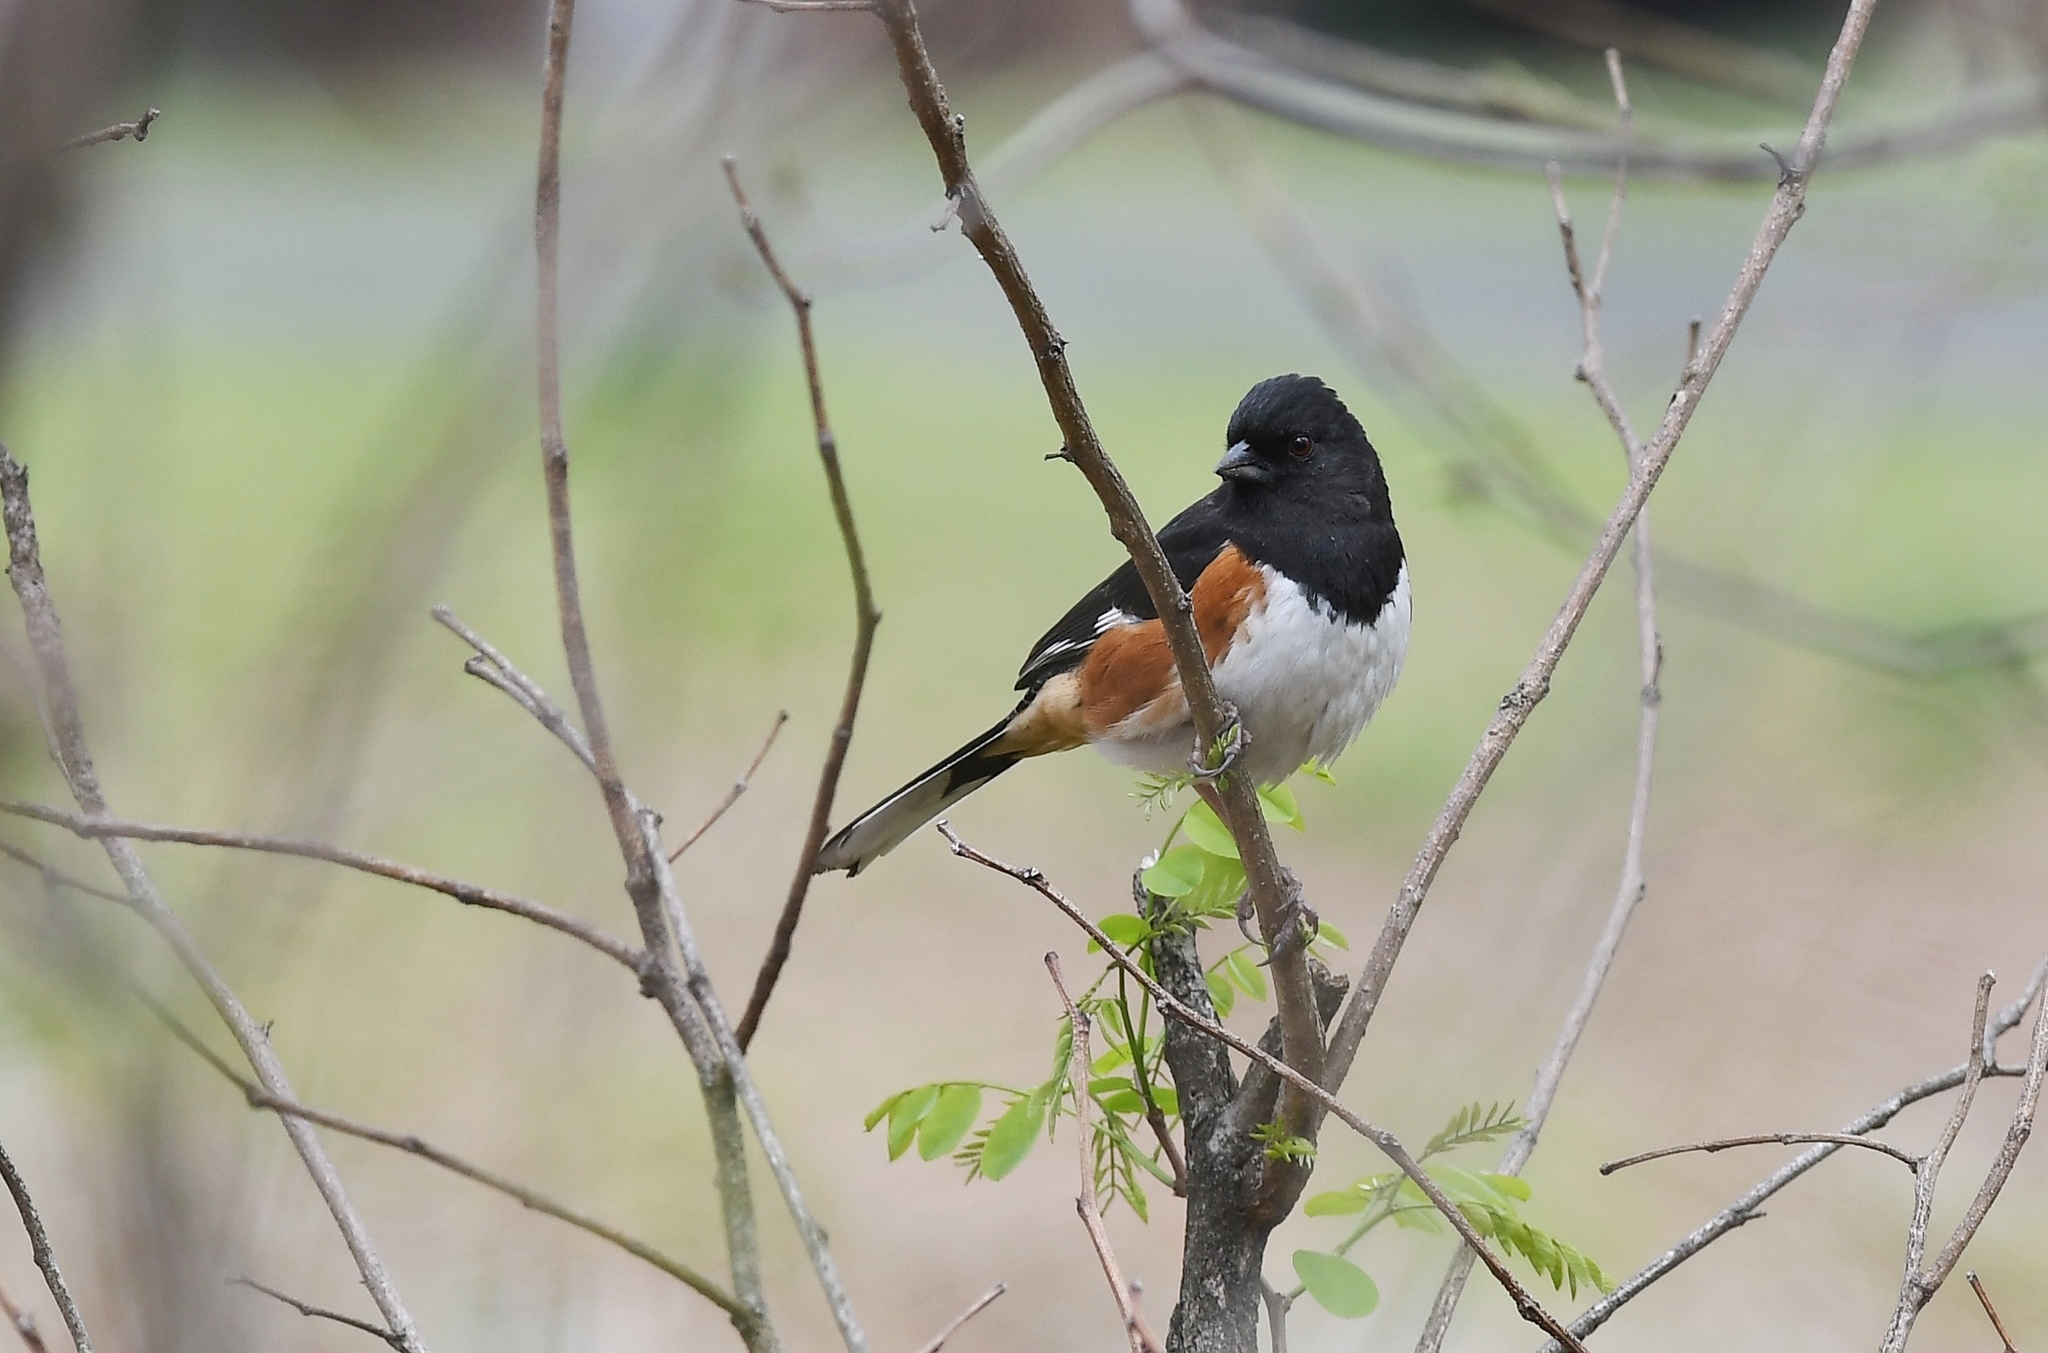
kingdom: Animalia
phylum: Chordata
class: Aves
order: Passeriformes
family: Passerellidae
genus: Pipilo
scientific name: Pipilo erythrophthalmus
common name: Eastern towhee
